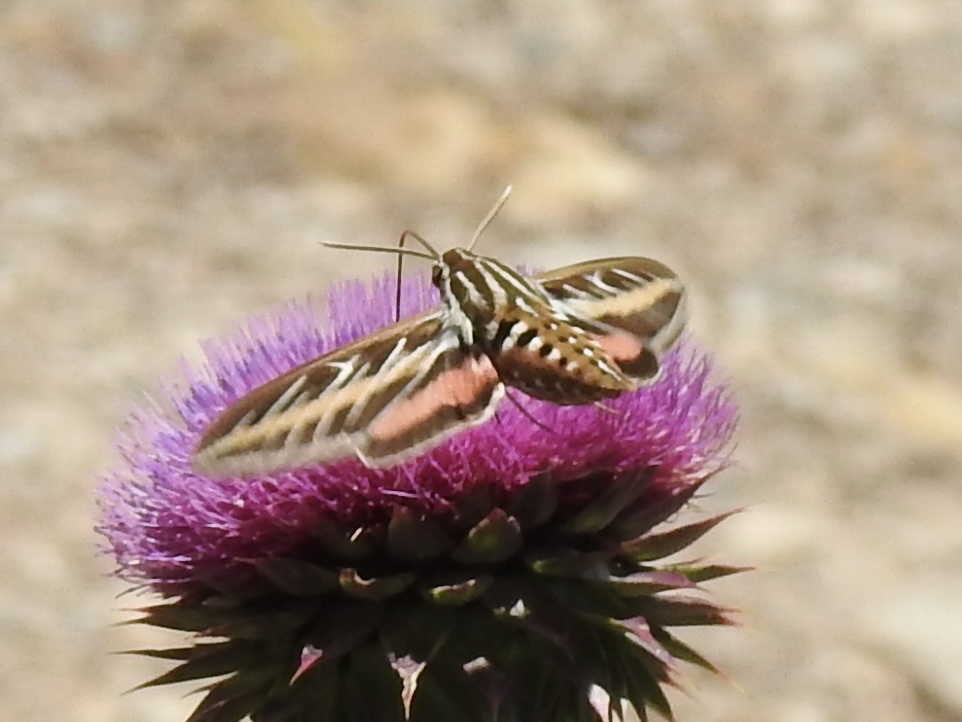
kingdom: Animalia
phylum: Arthropoda
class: Insecta
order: Lepidoptera
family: Sphingidae
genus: Hyles
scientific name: Hyles lineata
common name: White-lined sphinx
